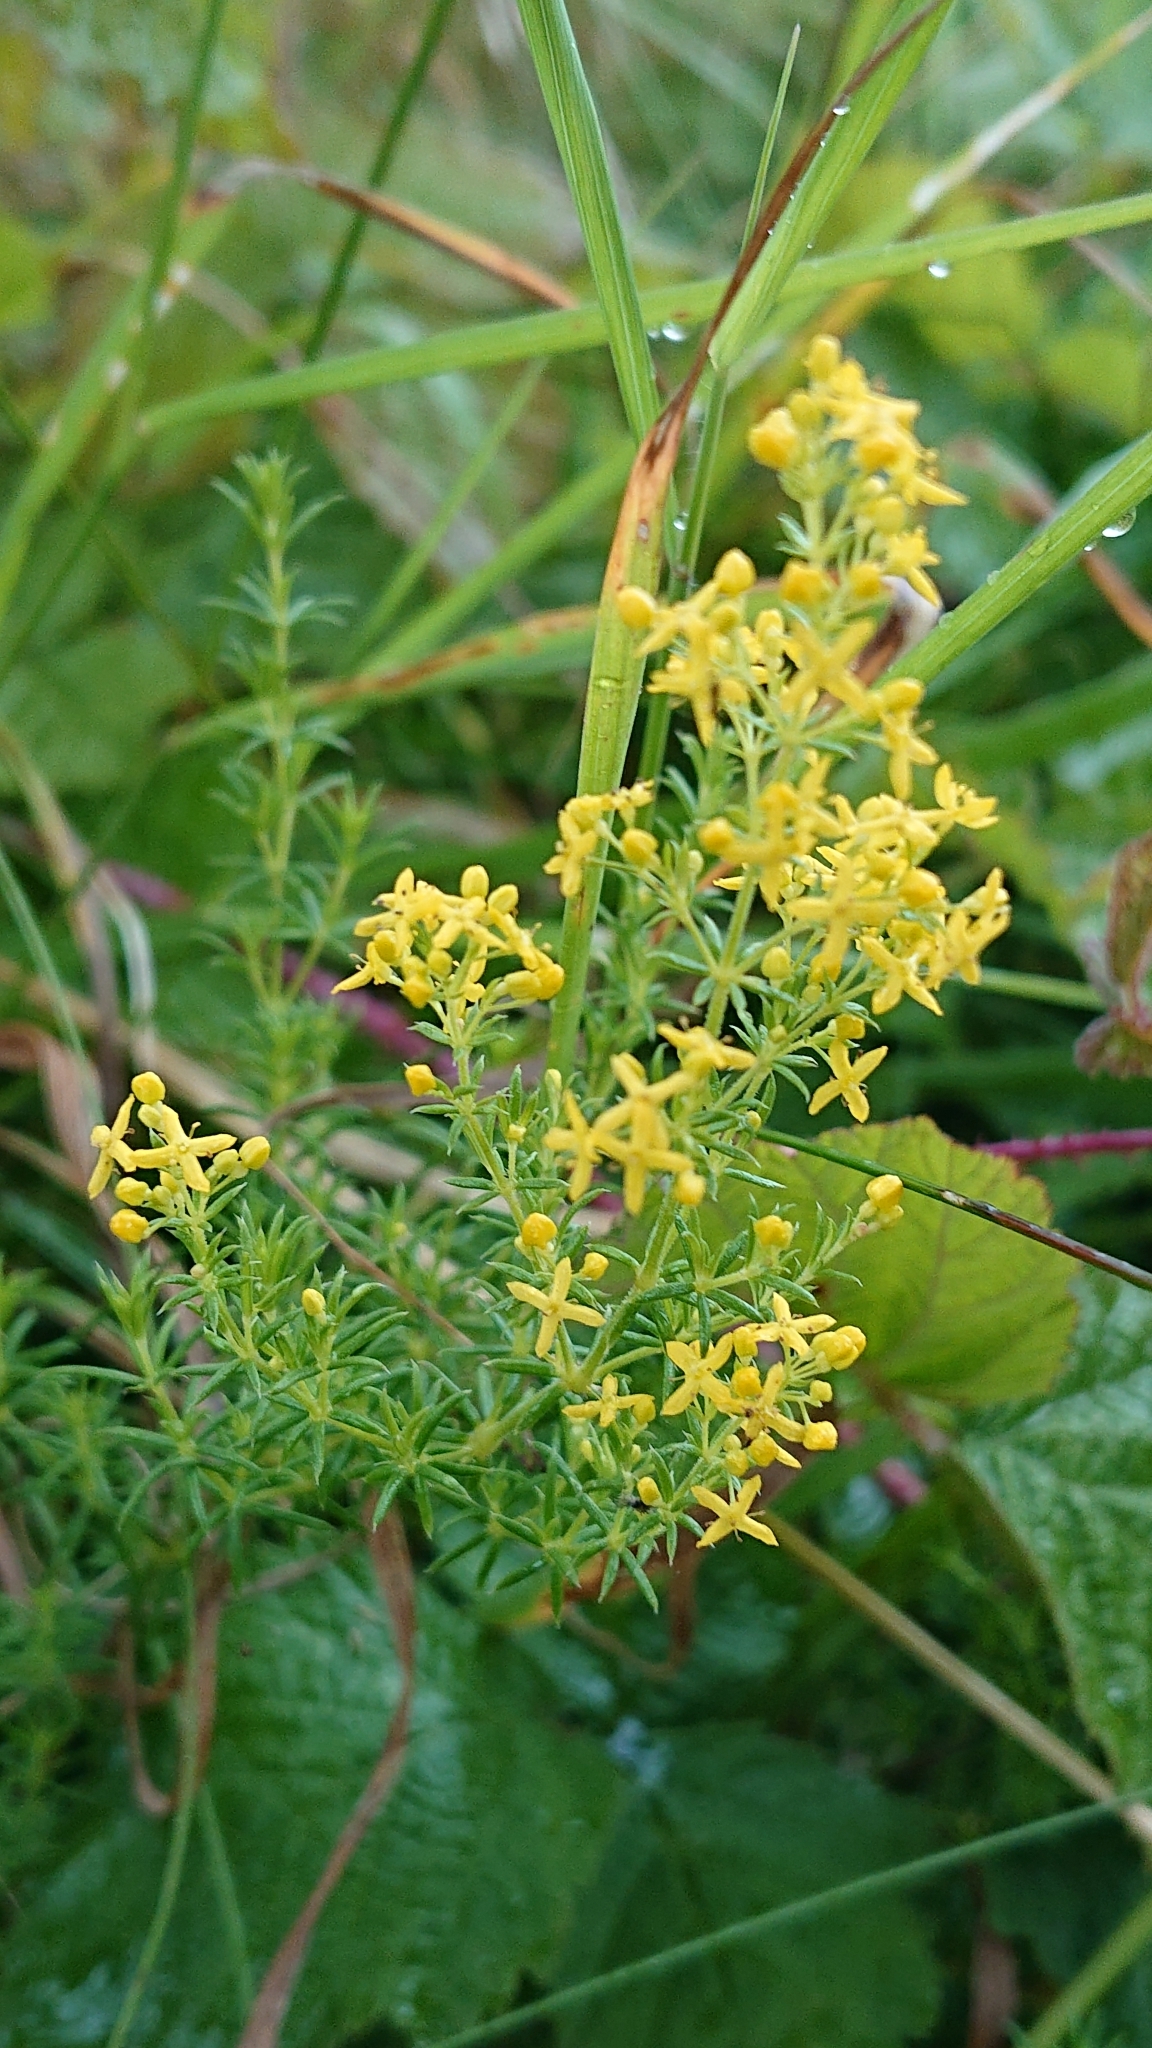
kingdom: Plantae
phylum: Tracheophyta
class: Magnoliopsida
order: Gentianales
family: Rubiaceae
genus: Galium
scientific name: Galium verum
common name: Lady's bedstraw
